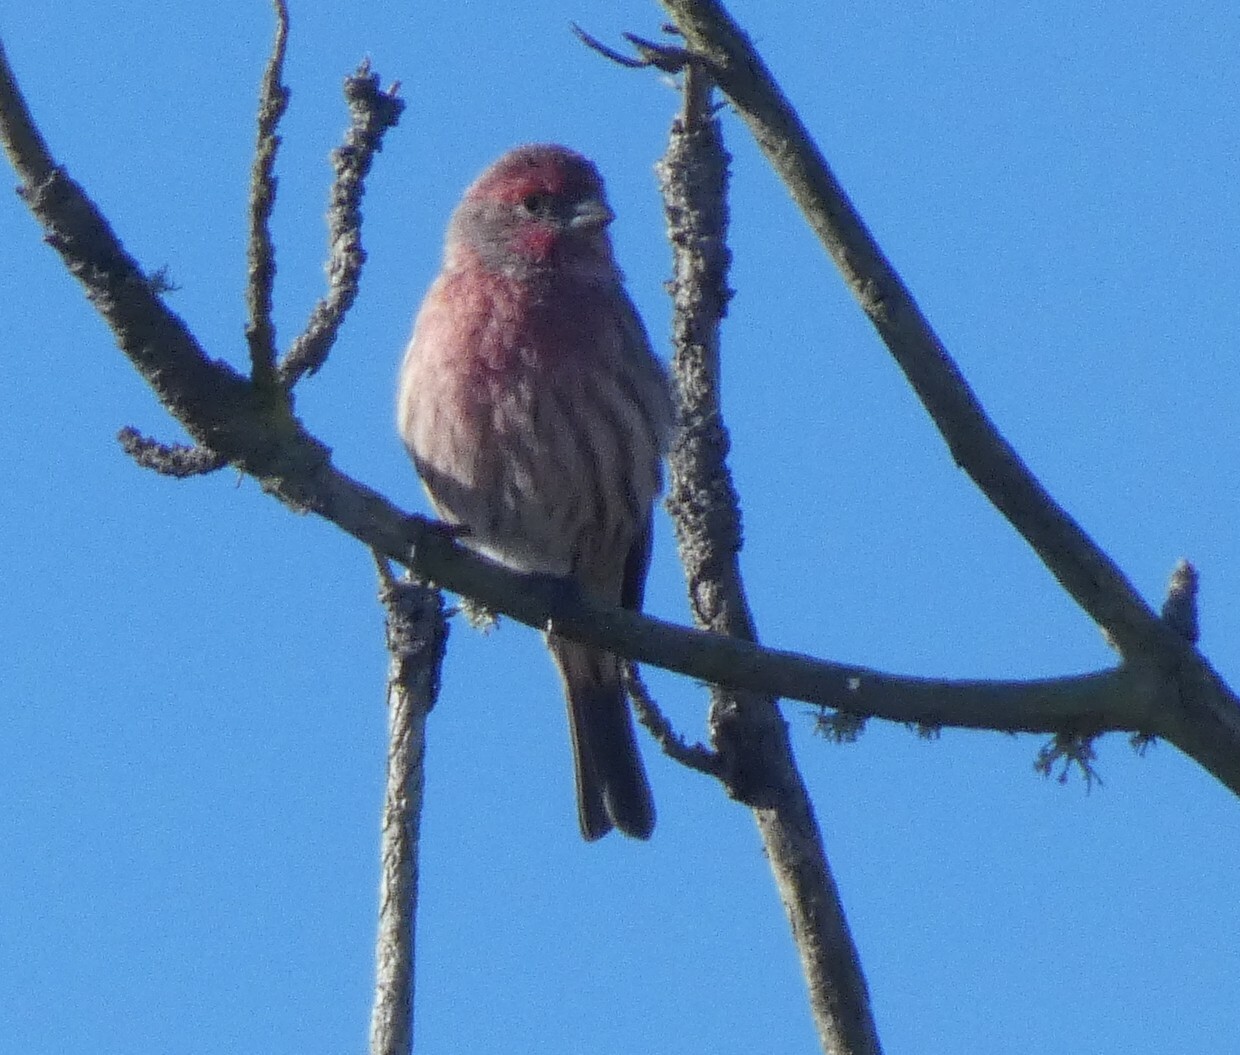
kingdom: Animalia
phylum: Chordata
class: Aves
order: Passeriformes
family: Fringillidae
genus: Haemorhous
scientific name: Haemorhous mexicanus
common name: House finch
